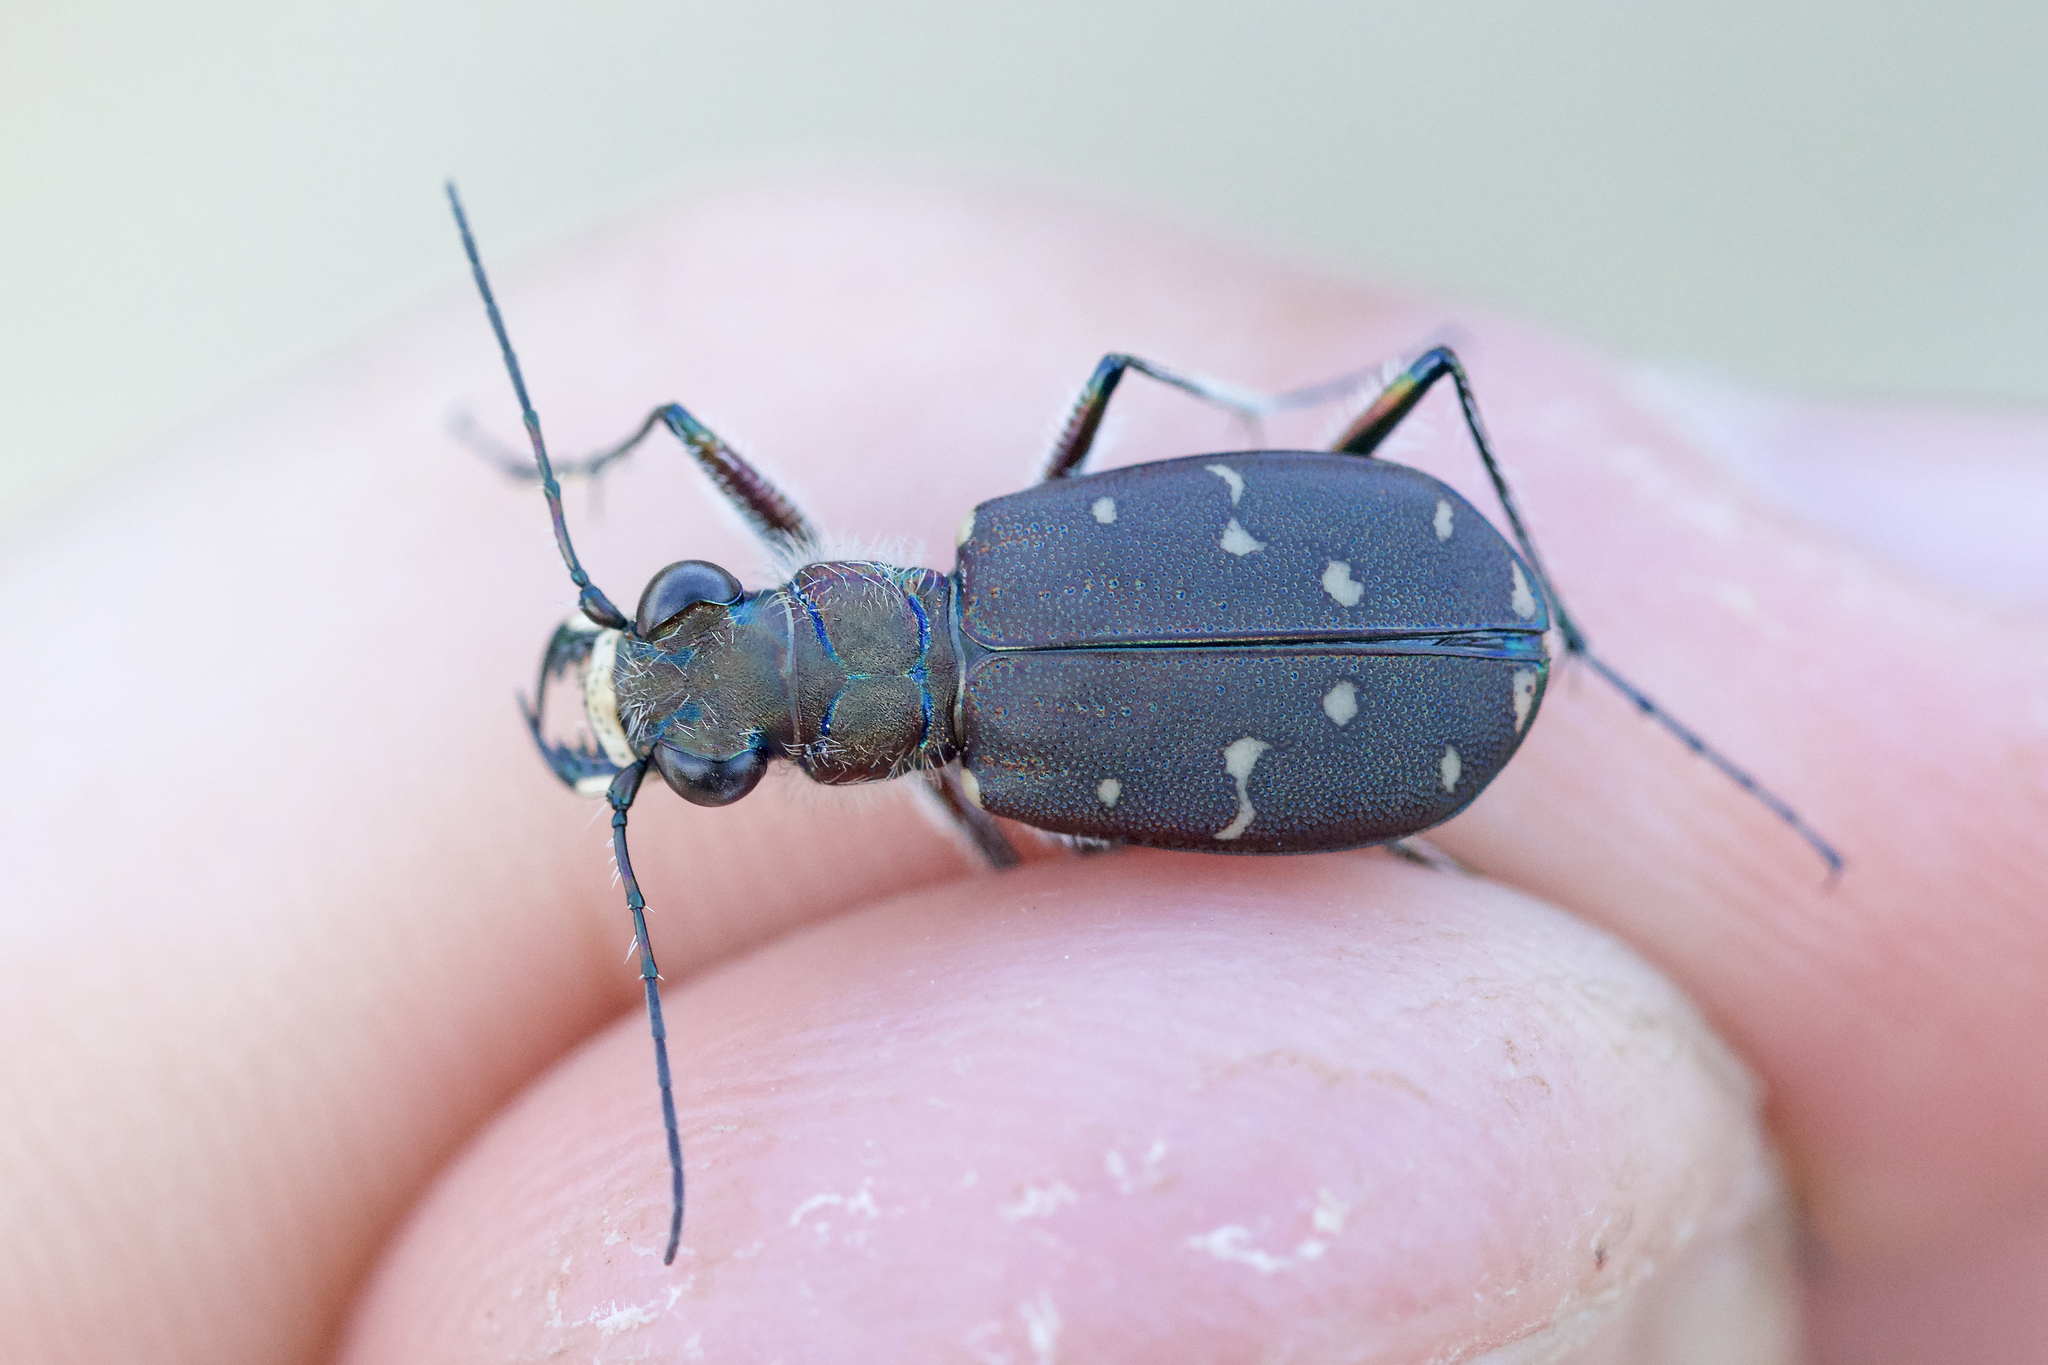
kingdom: Animalia
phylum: Arthropoda
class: Insecta
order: Coleoptera
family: Carabidae
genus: Cicindela
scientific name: Cicindela duodecimguttata
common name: Twelve-spotted tiger beetle
